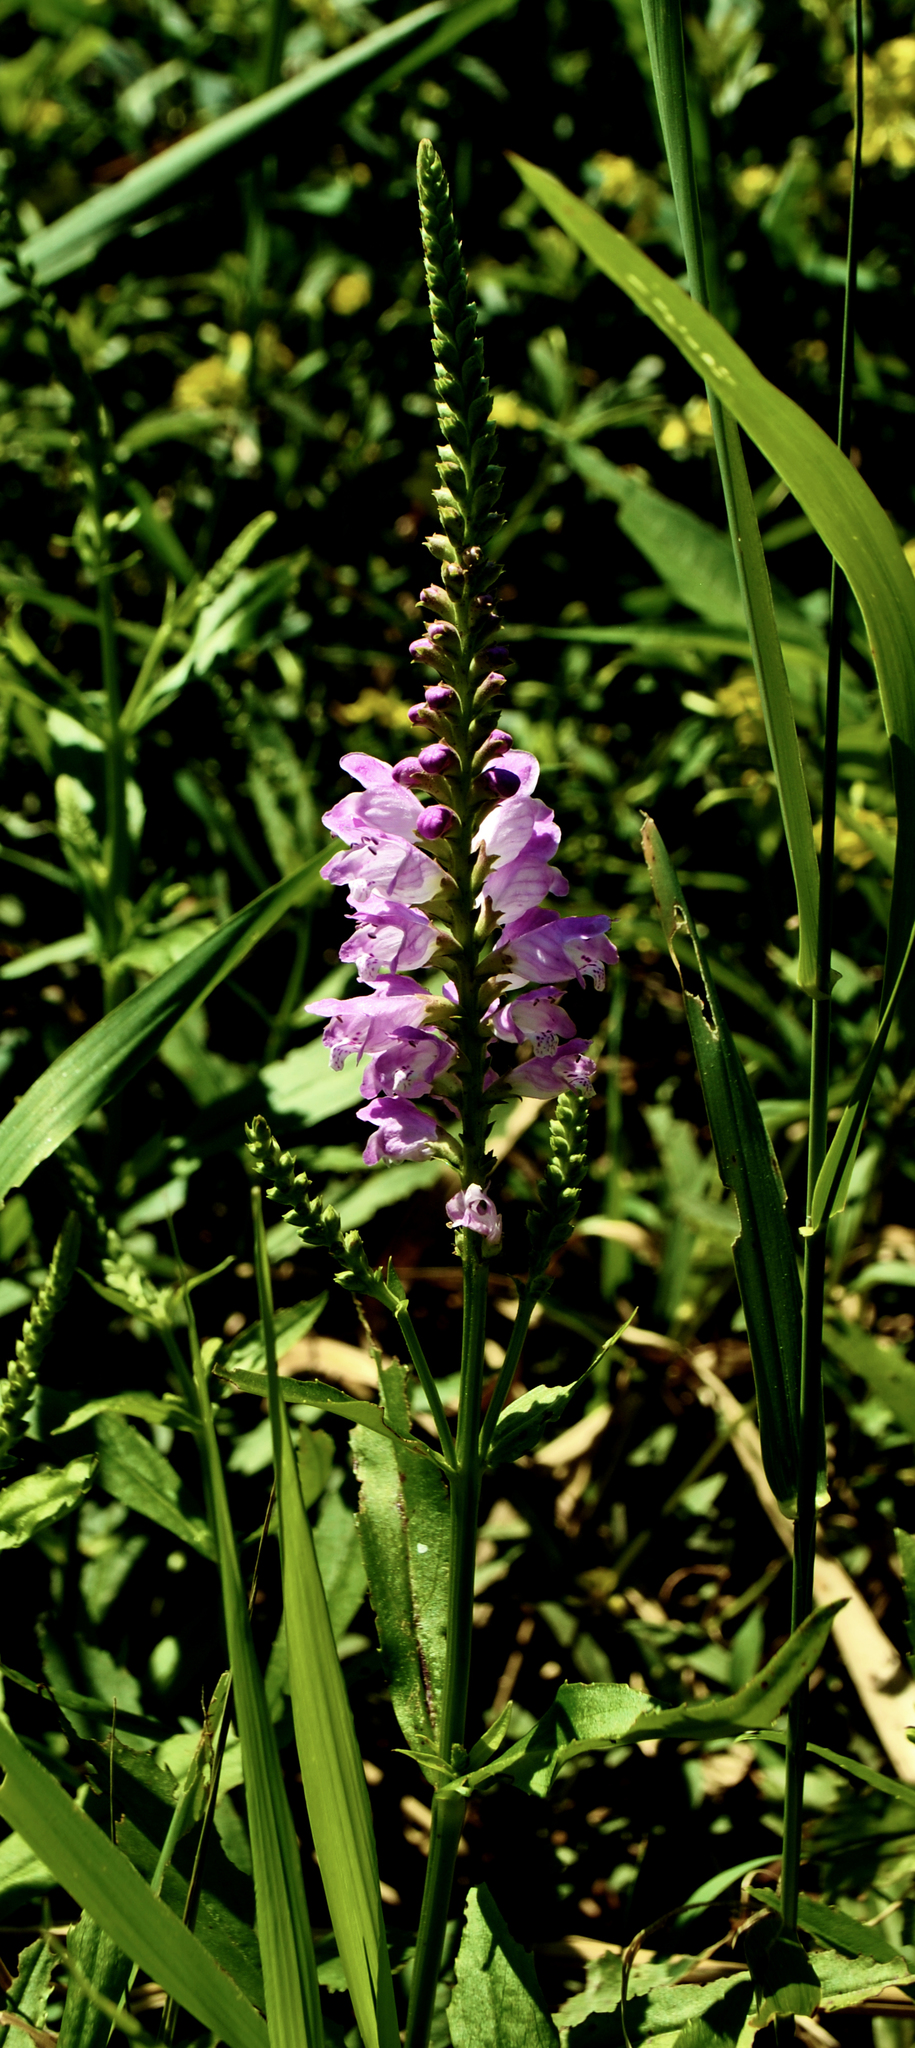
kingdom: Plantae
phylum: Tracheophyta
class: Magnoliopsida
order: Lamiales
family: Lamiaceae
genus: Physostegia
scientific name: Physostegia virginiana
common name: Obedient-plant
